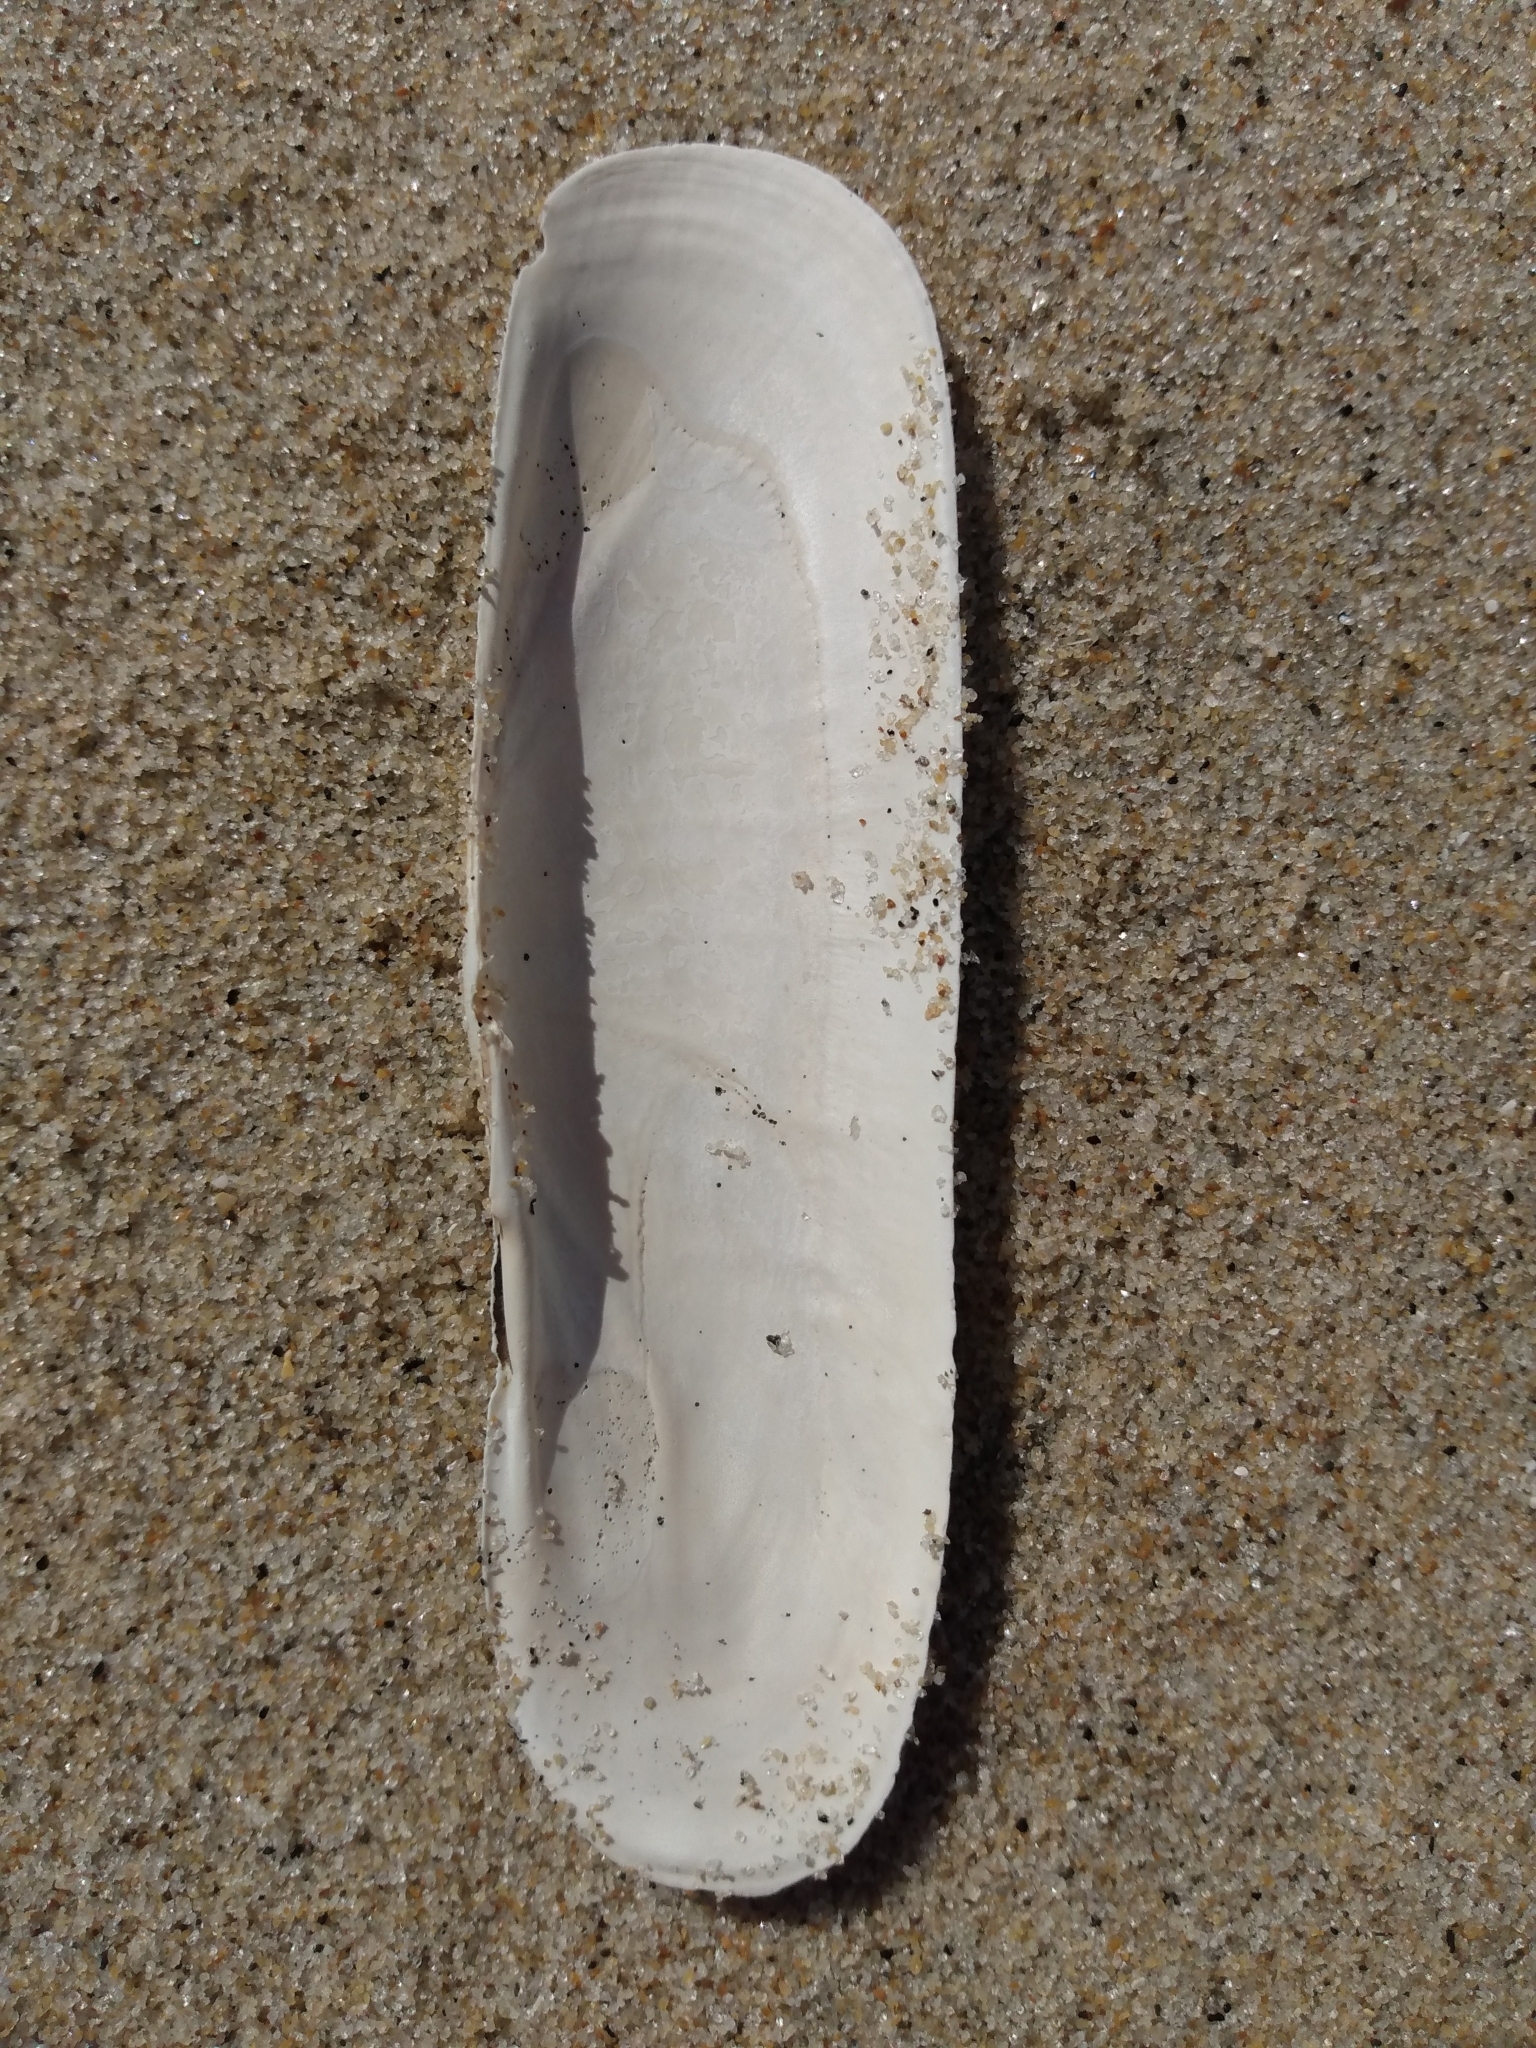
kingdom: Animalia
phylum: Mollusca
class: Bivalvia
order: Cardiida
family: Solecurtidae
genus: Tagelus
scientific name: Tagelus californianus
